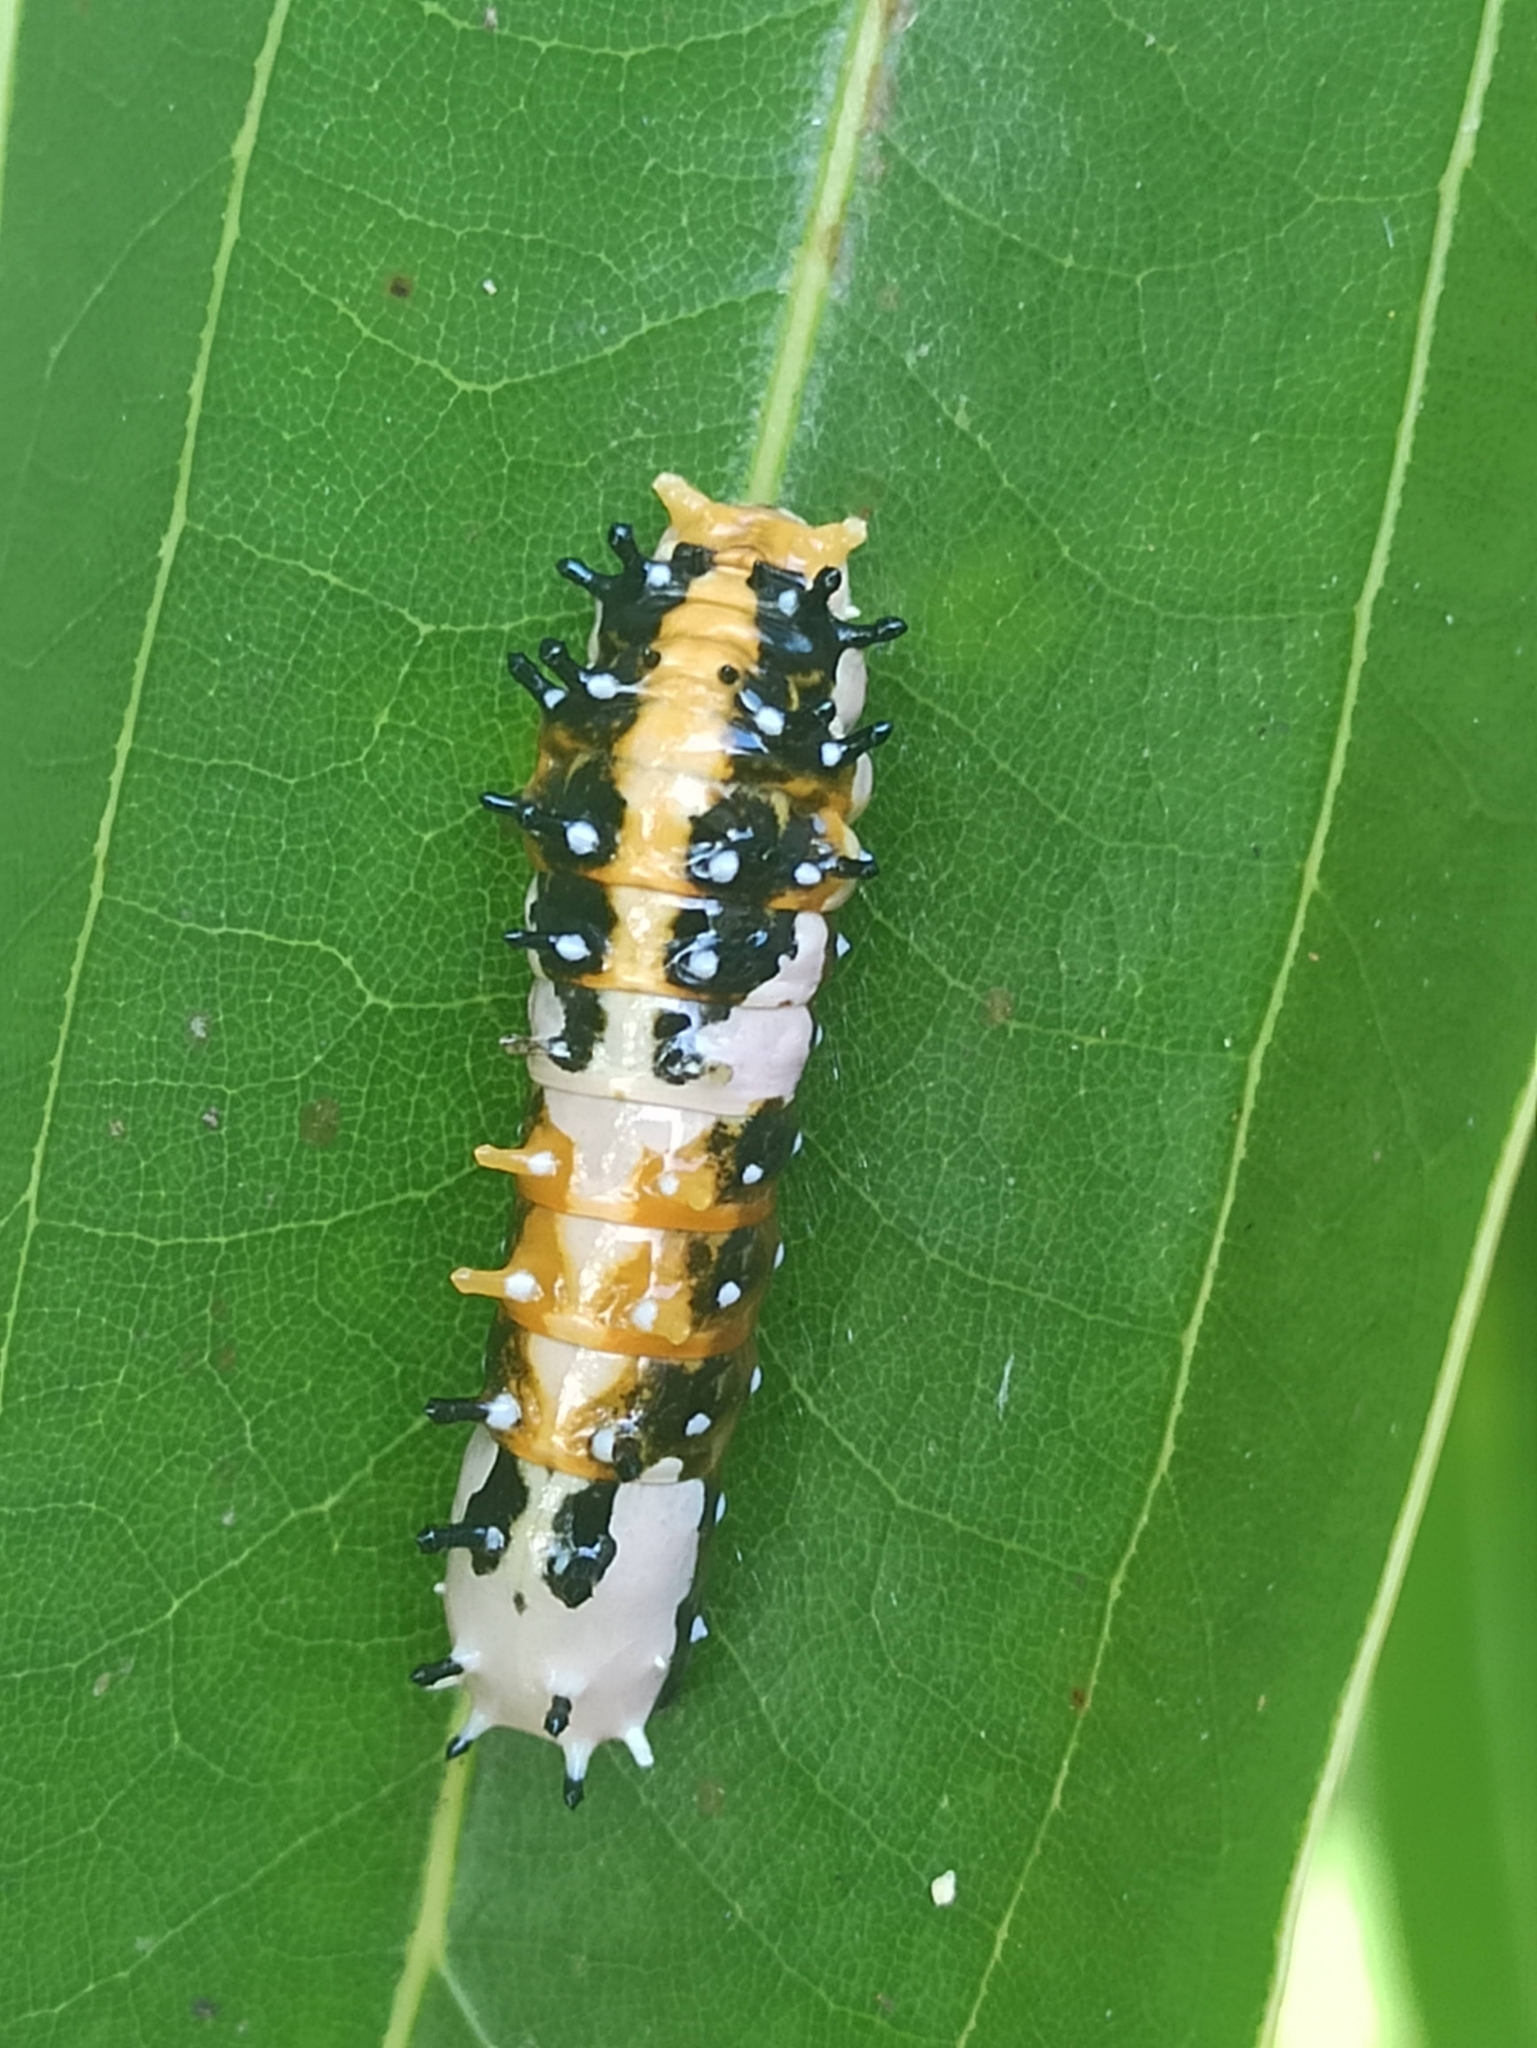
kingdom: Animalia
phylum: Arthropoda
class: Insecta
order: Lepidoptera
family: Papilionidae
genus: Chilasa
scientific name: Chilasa clytia
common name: Common mime
